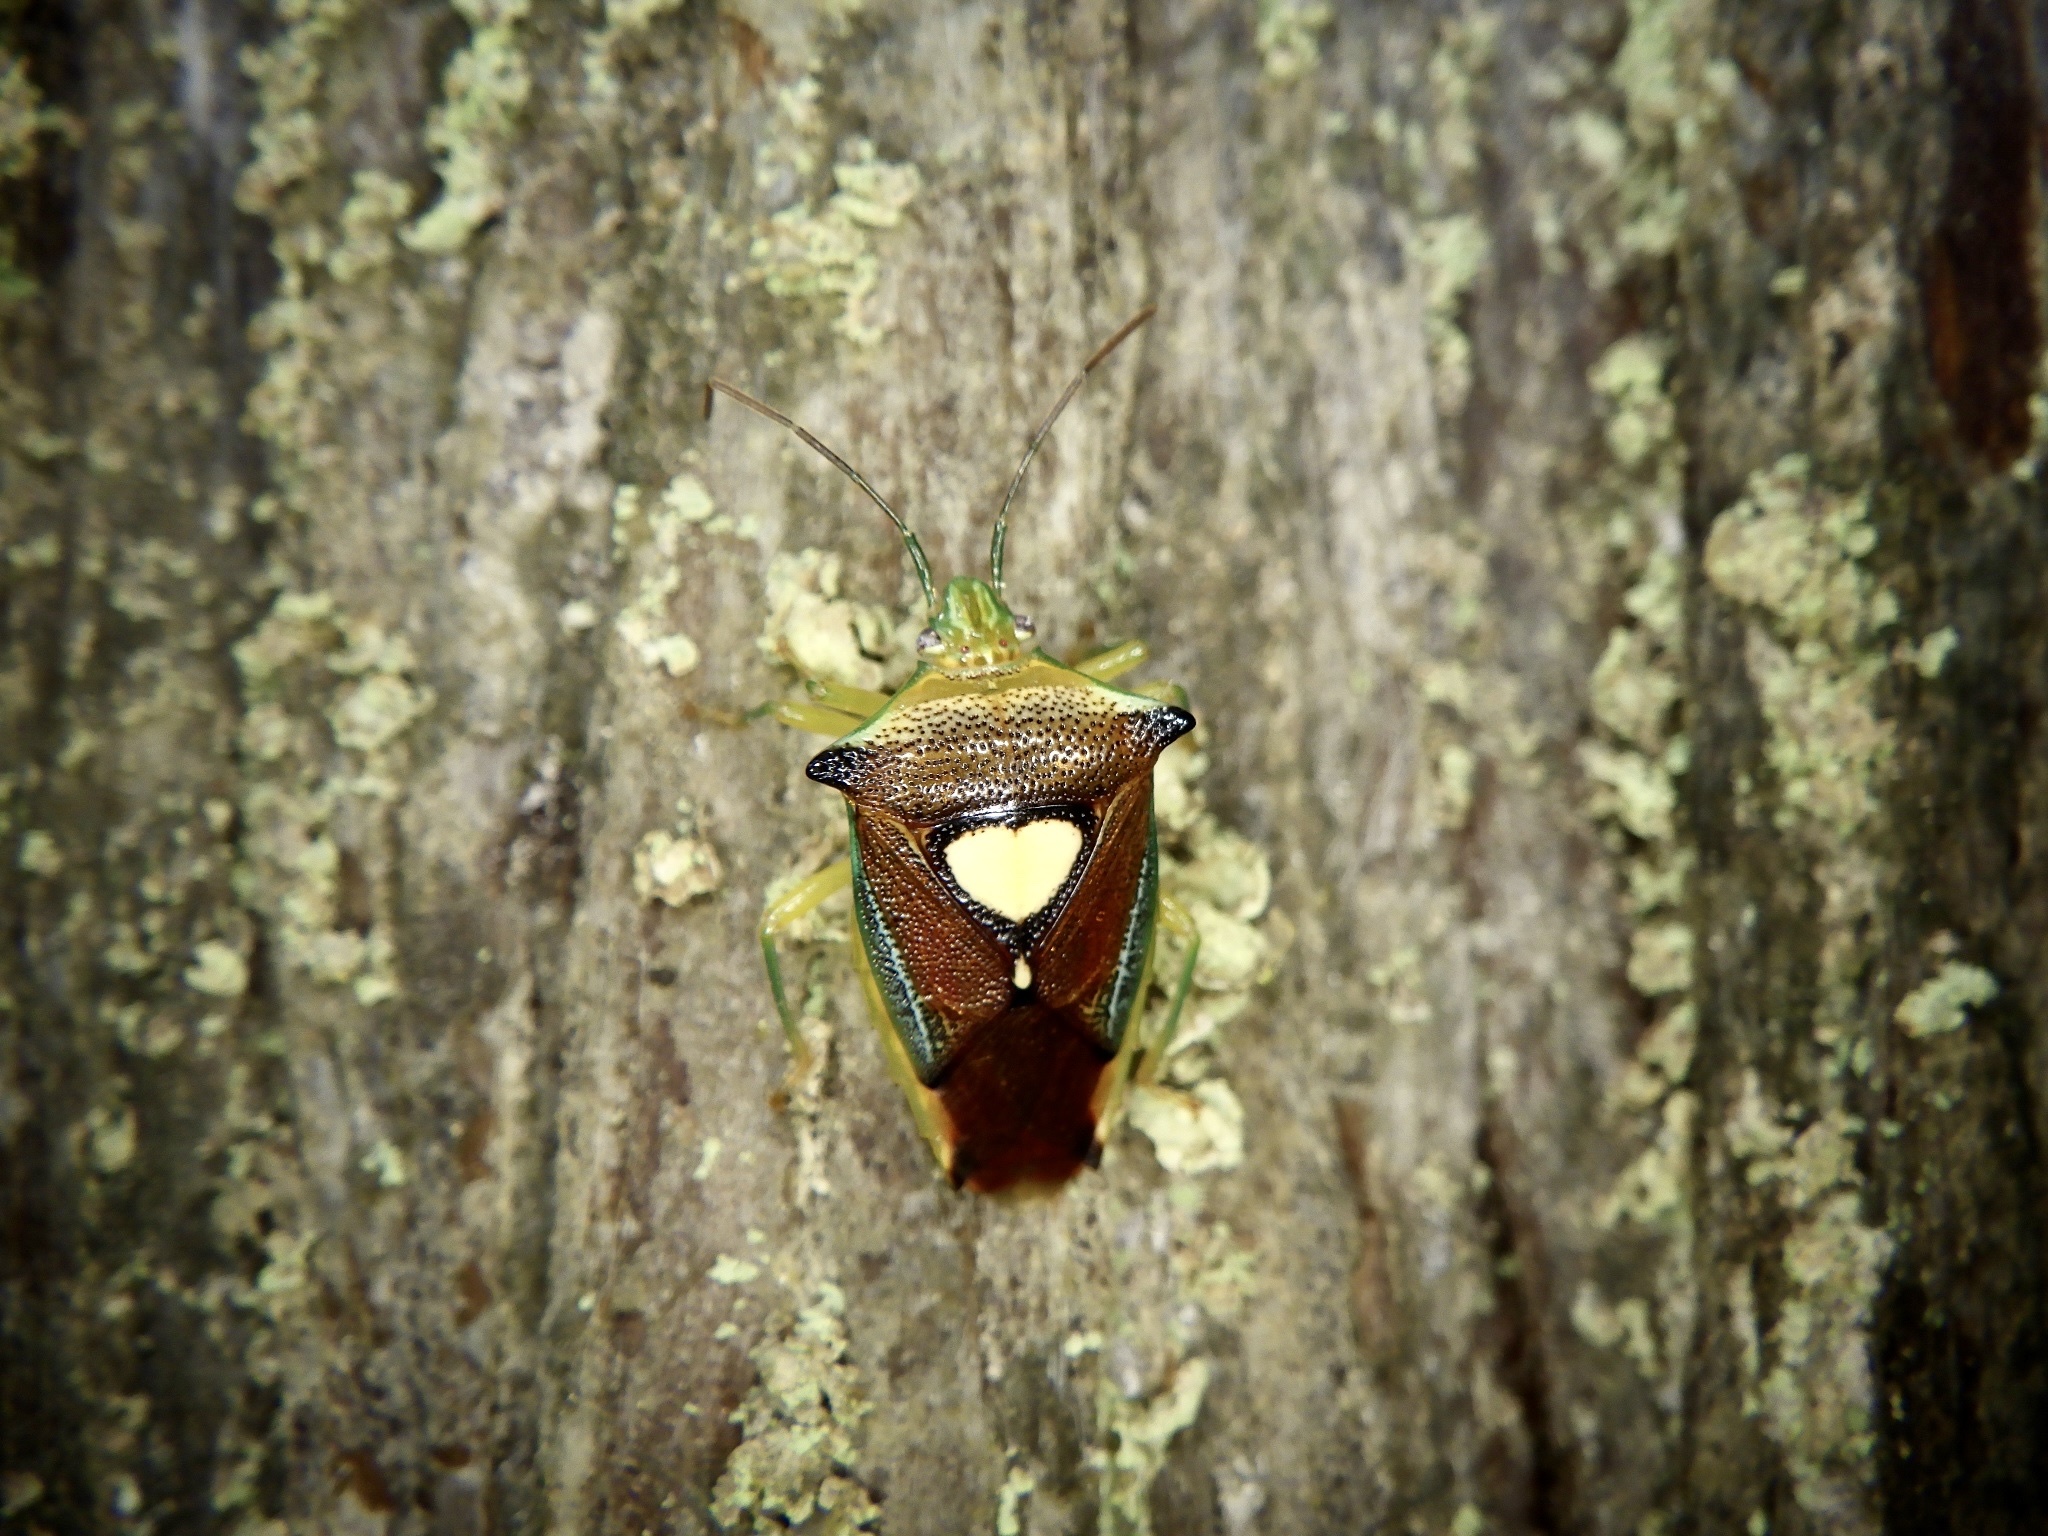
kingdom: Animalia
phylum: Arthropoda
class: Insecta
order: Hemiptera
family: Acanthosomatidae
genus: Sastragala
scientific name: Sastragala esakii
